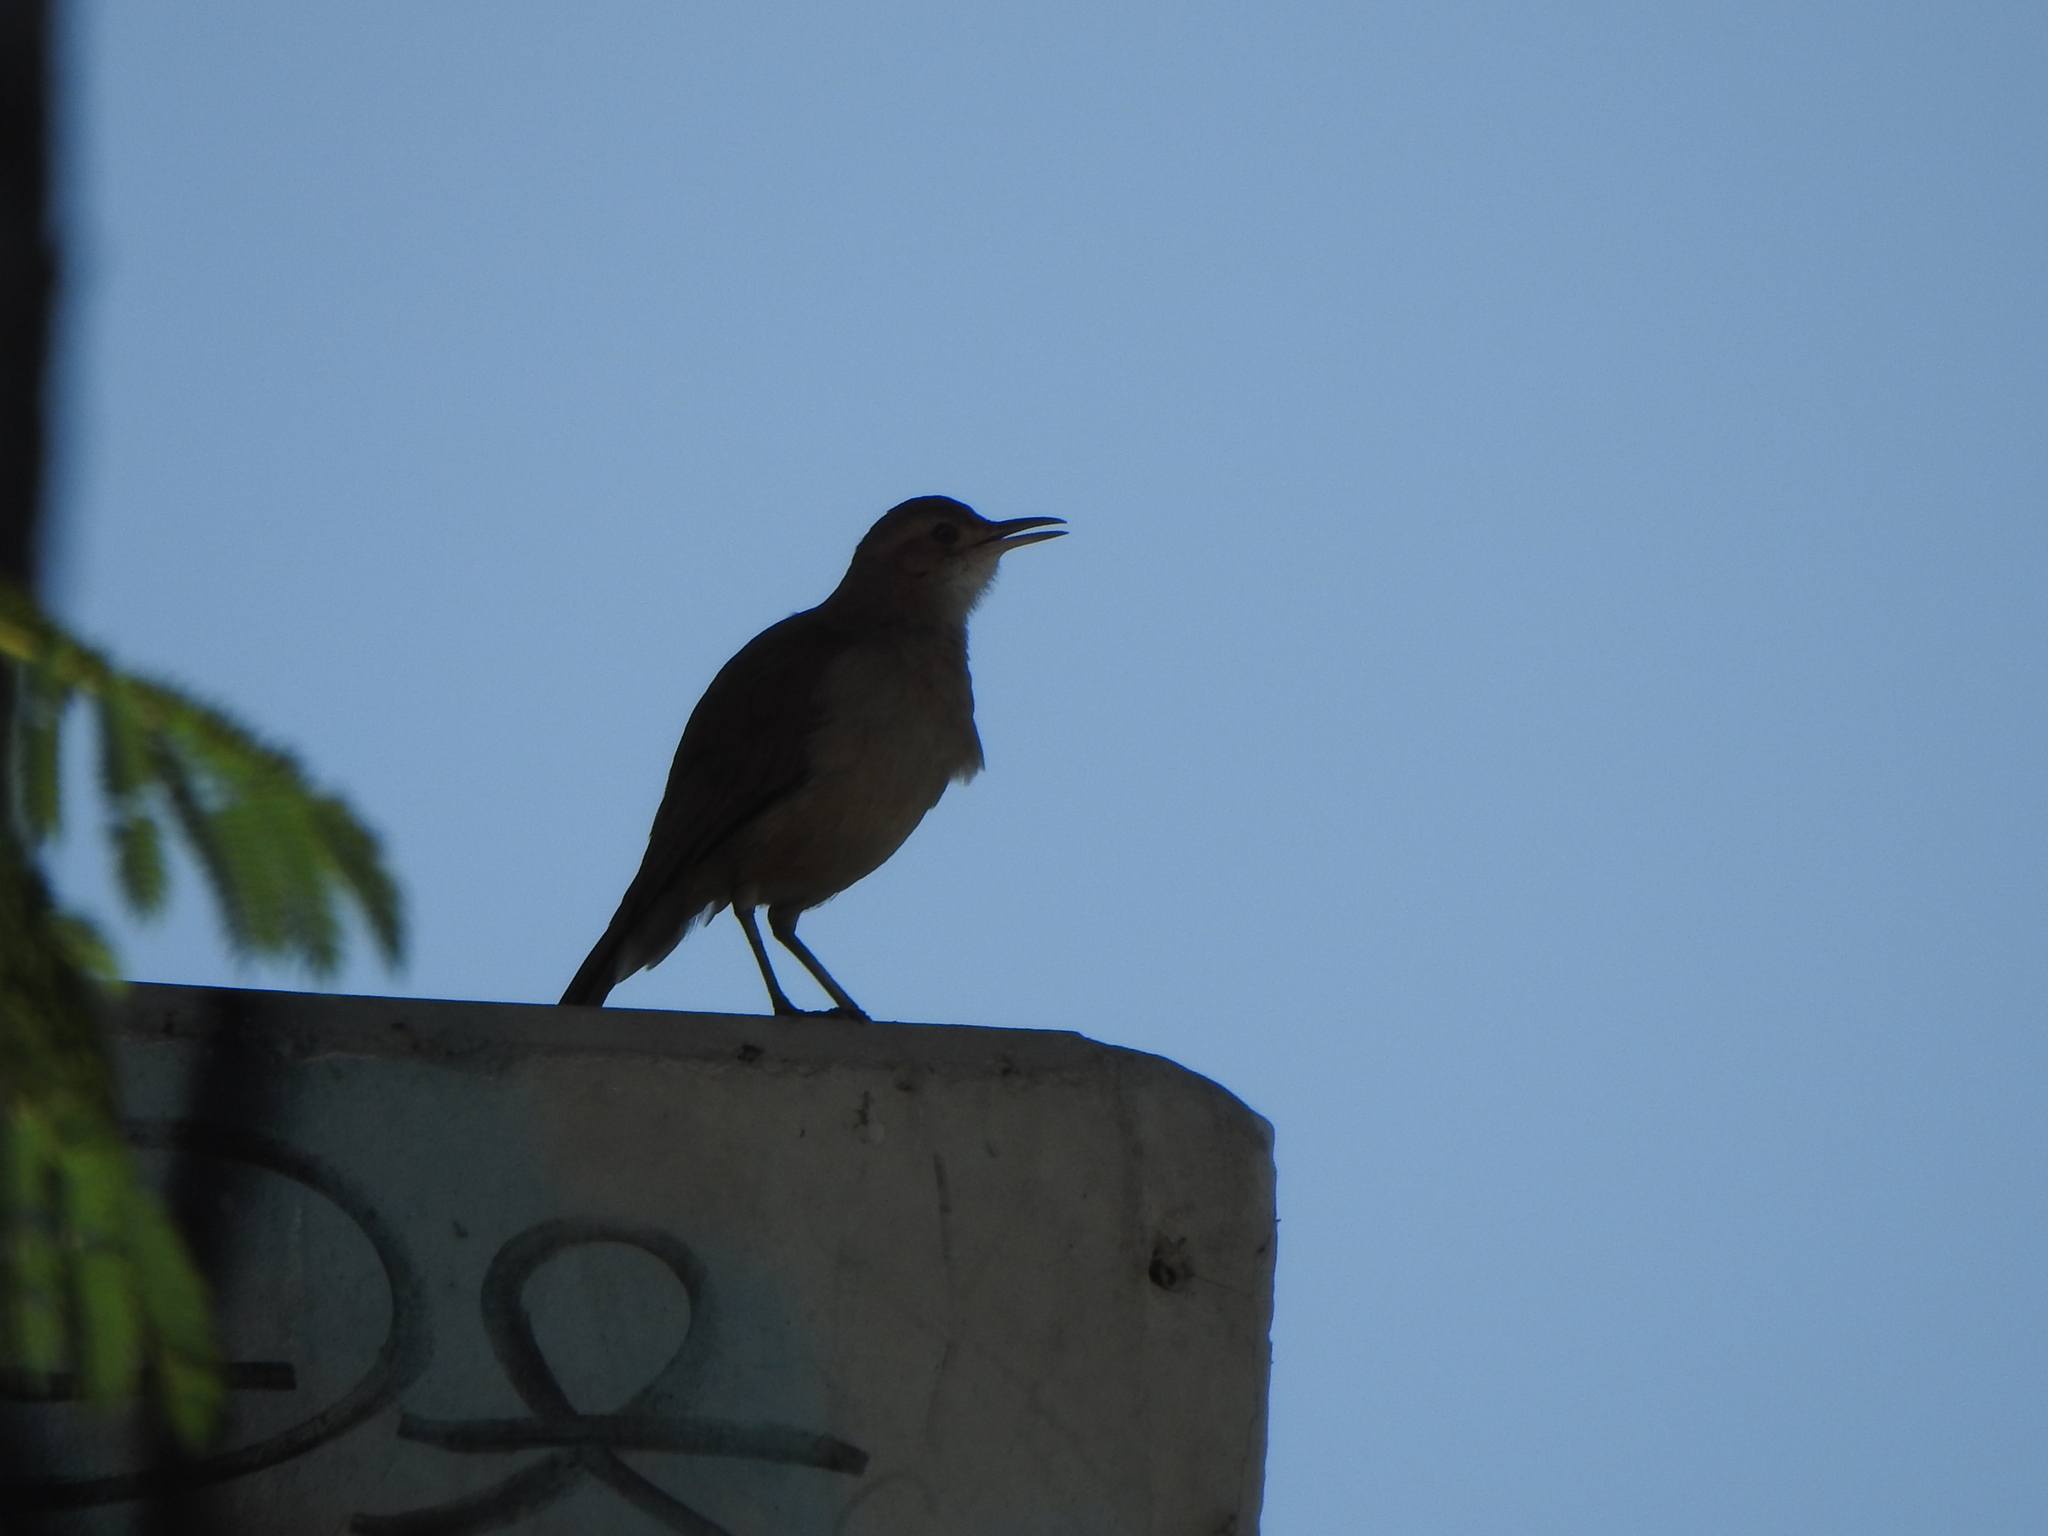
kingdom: Animalia
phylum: Chordata
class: Aves
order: Passeriformes
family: Furnariidae
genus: Furnarius
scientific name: Furnarius rufus
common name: Rufous hornero
